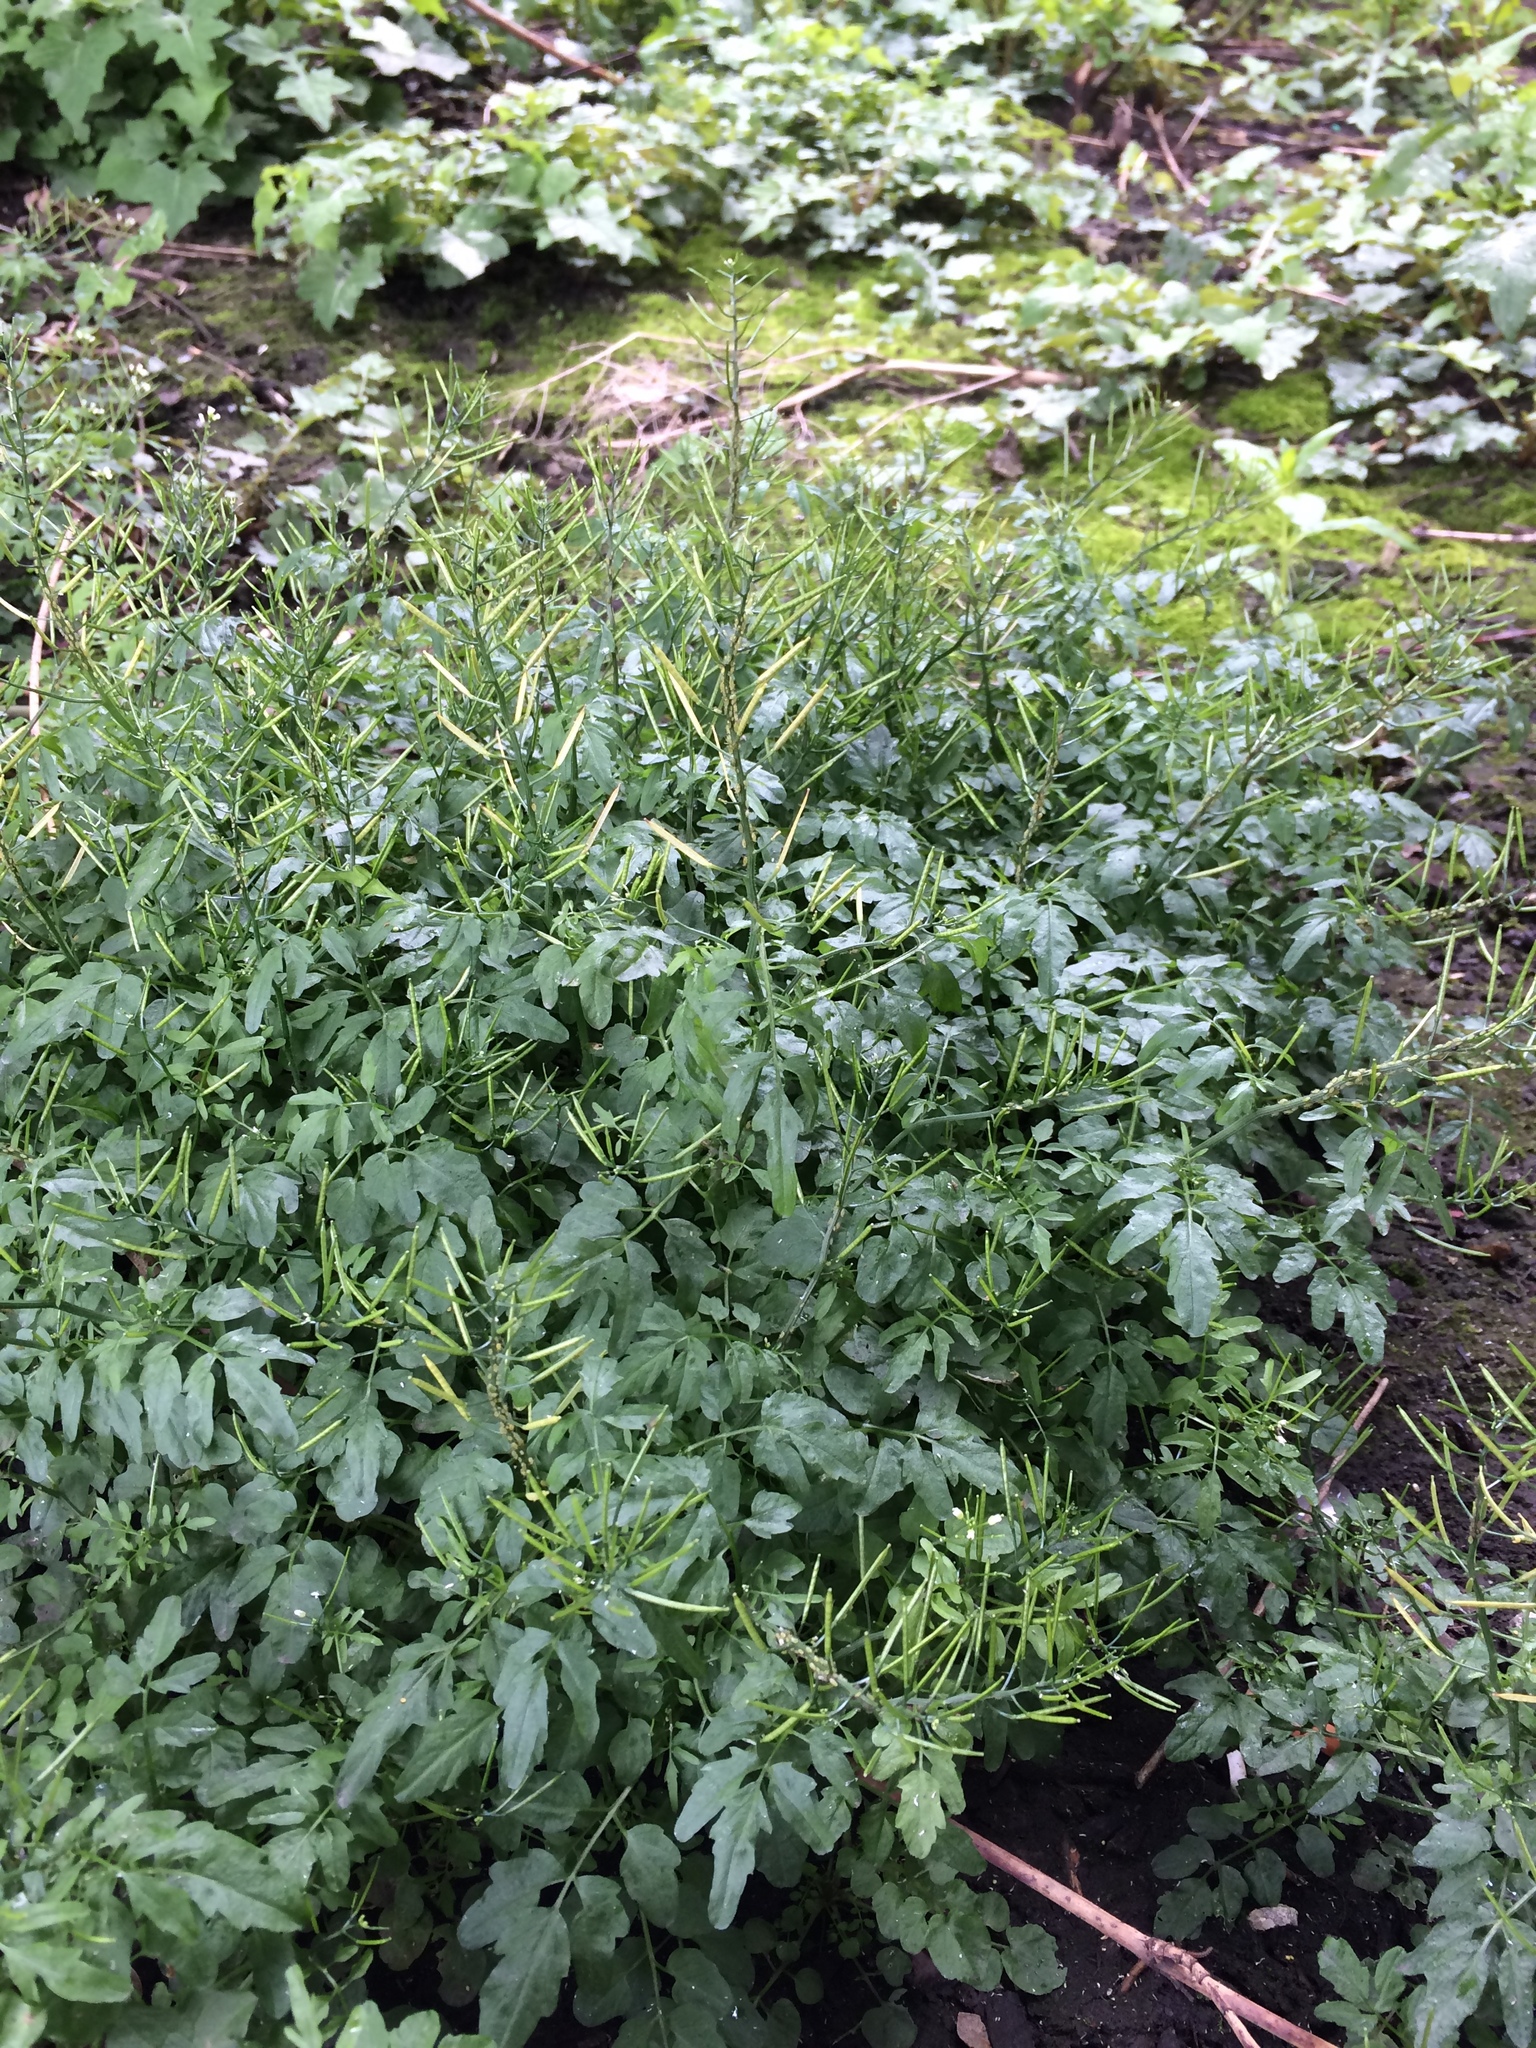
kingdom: Plantae
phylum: Tracheophyta
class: Magnoliopsida
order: Brassicales
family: Brassicaceae
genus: Cardamine
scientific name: Cardamine flexuosa
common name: Woodland bittercress
